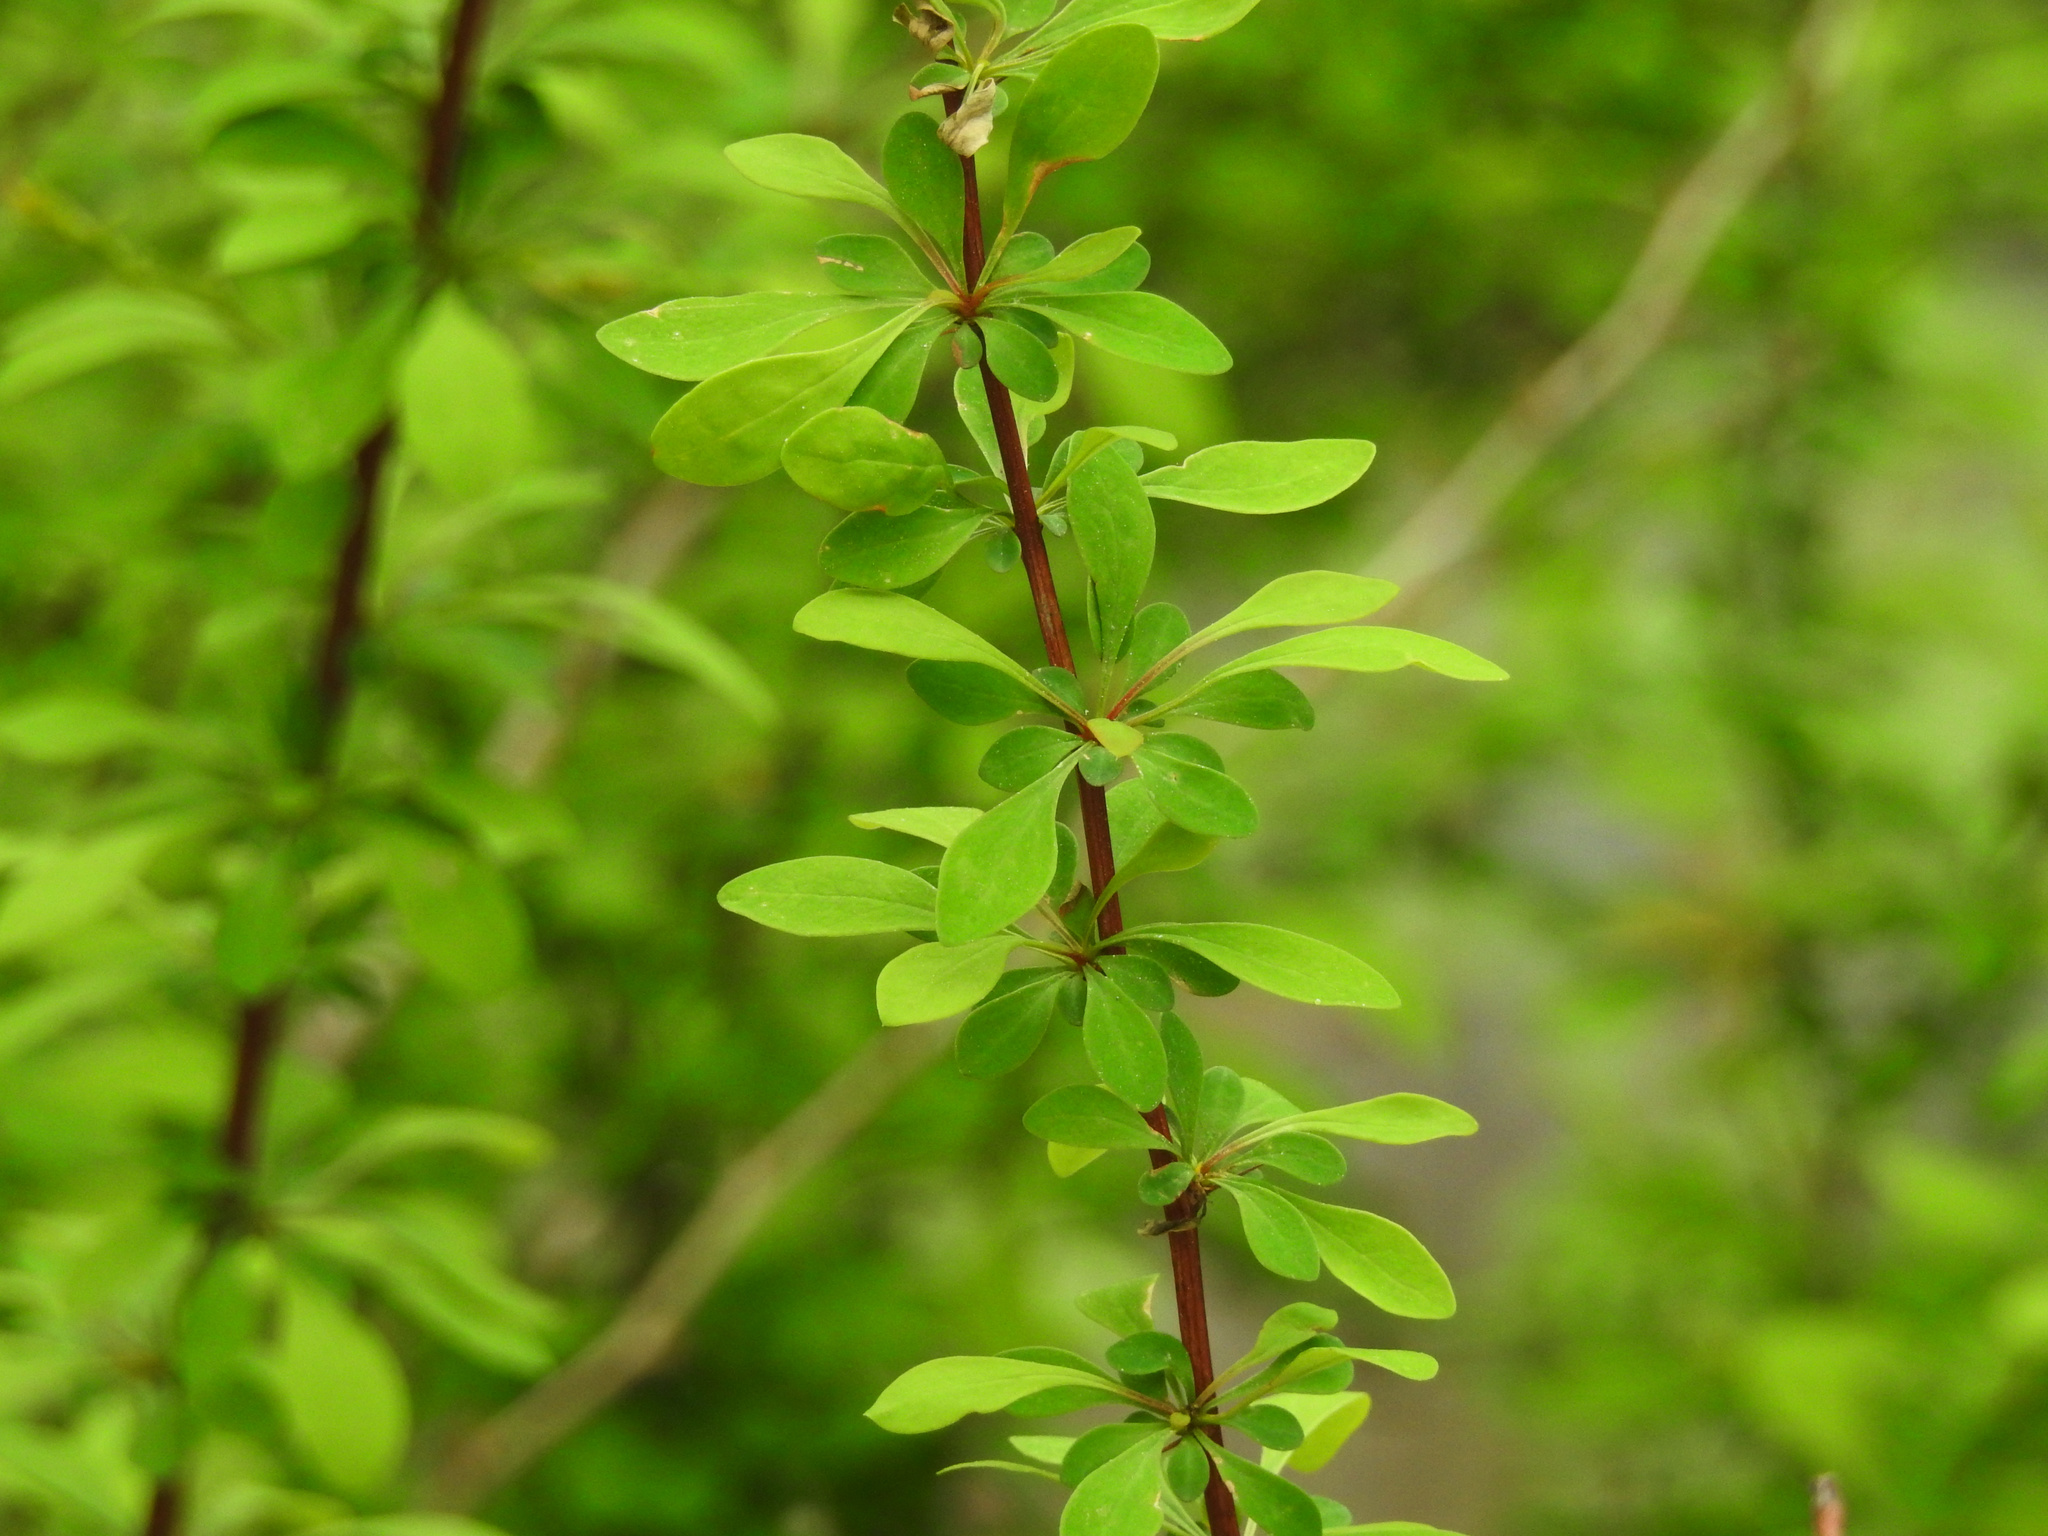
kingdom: Plantae
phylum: Tracheophyta
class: Magnoliopsida
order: Ranunculales
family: Berberidaceae
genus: Berberis
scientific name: Berberis thunbergii
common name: Japanese barberry
